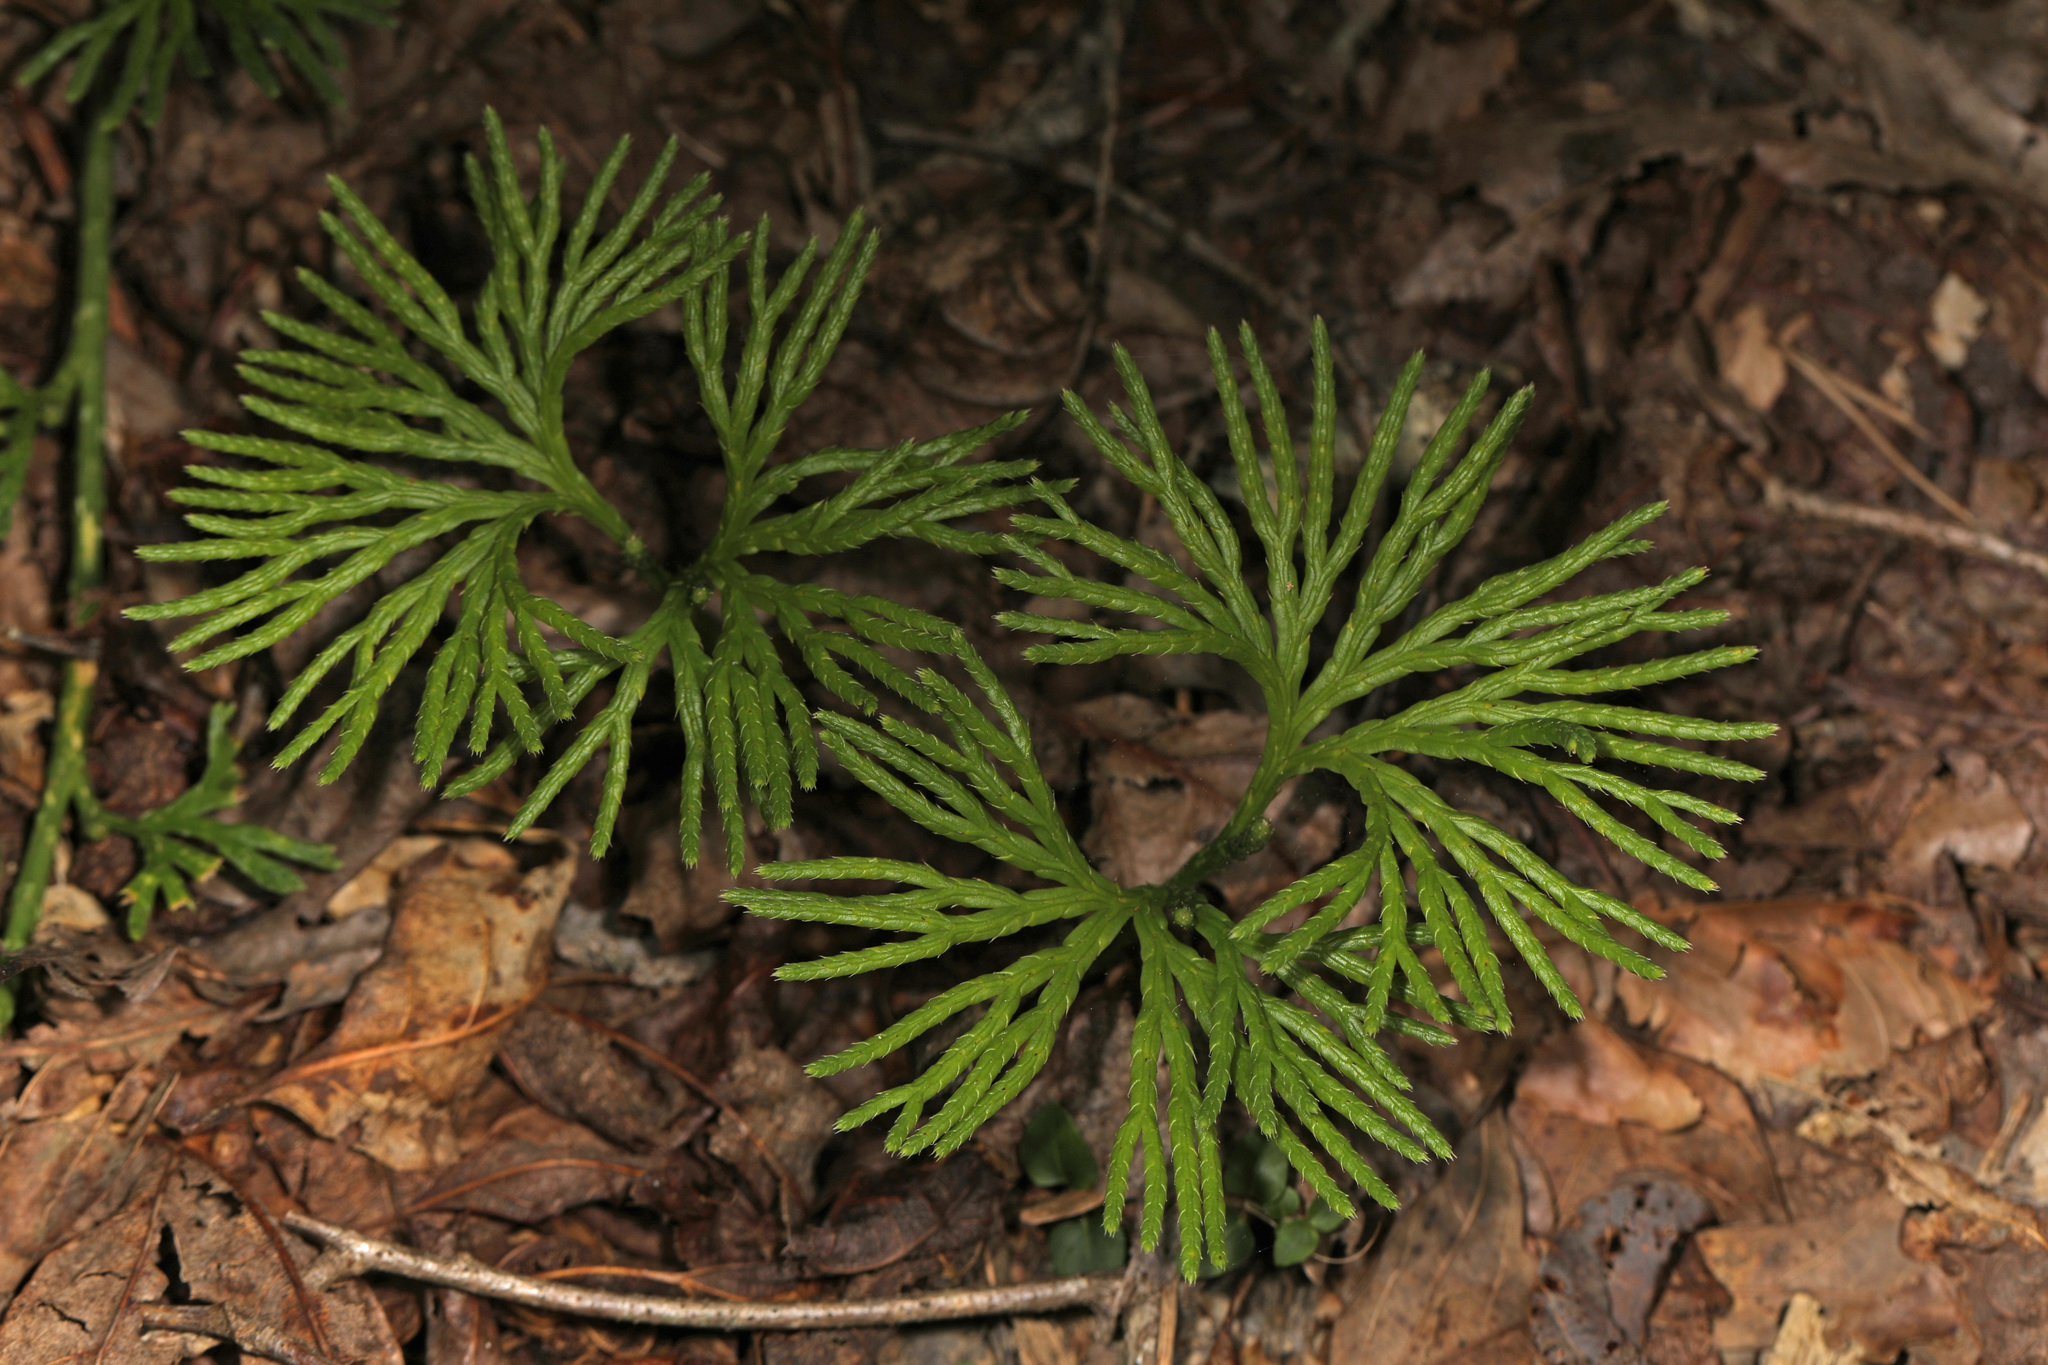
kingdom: Plantae
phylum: Tracheophyta
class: Lycopodiopsida
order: Lycopodiales
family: Lycopodiaceae
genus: Diphasiastrum
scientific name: Diphasiastrum digitatum
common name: Southern running-pine
